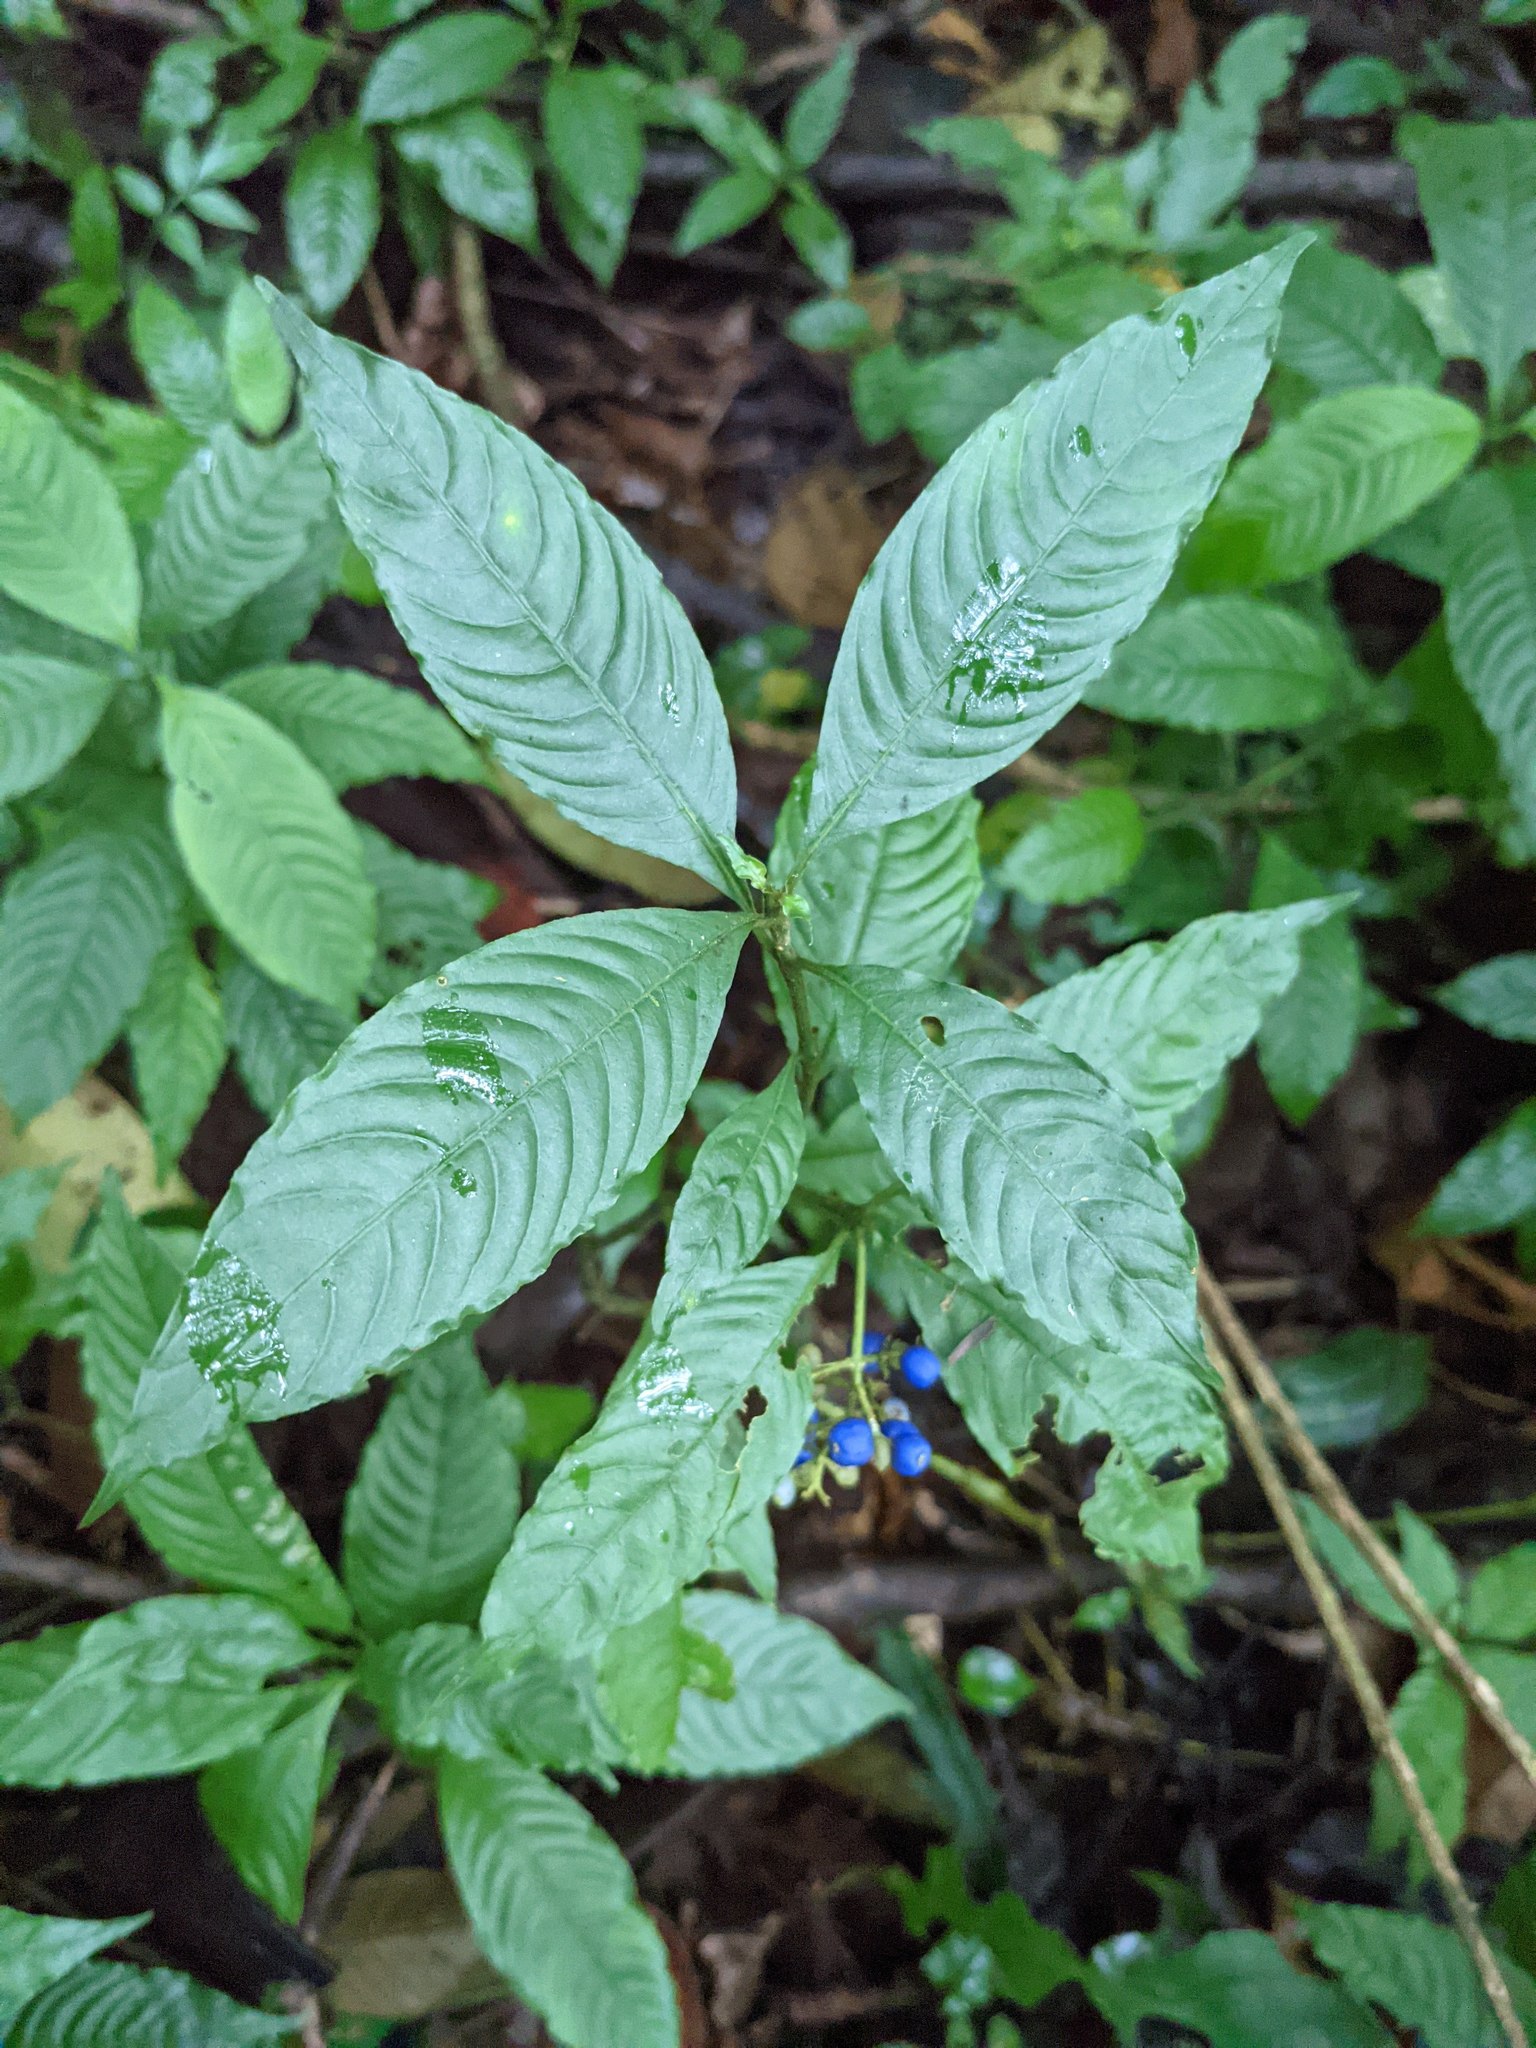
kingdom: Plantae
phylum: Tracheophyta
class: Magnoliopsida
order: Gentianales
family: Rubiaceae
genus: Palicourea
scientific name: Palicourea cyanococca
